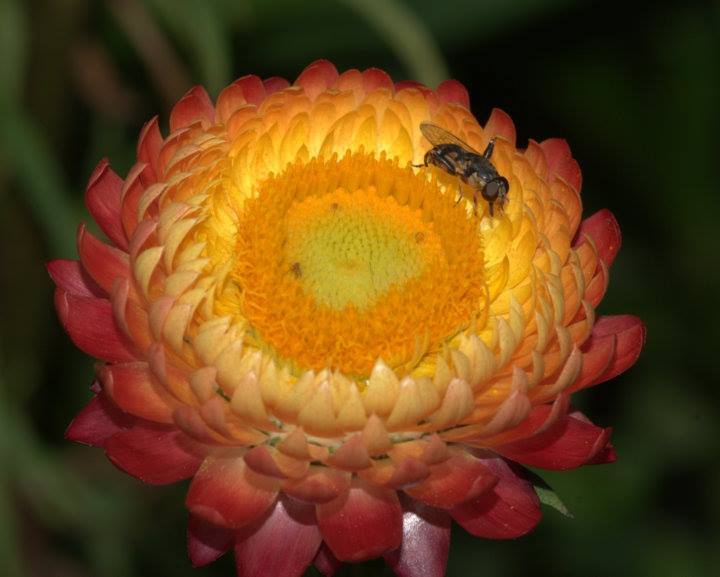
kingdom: Animalia
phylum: Arthropoda
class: Insecta
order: Diptera
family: Syrphidae
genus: Syritta
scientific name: Syritta pipiens
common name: Hover fly
